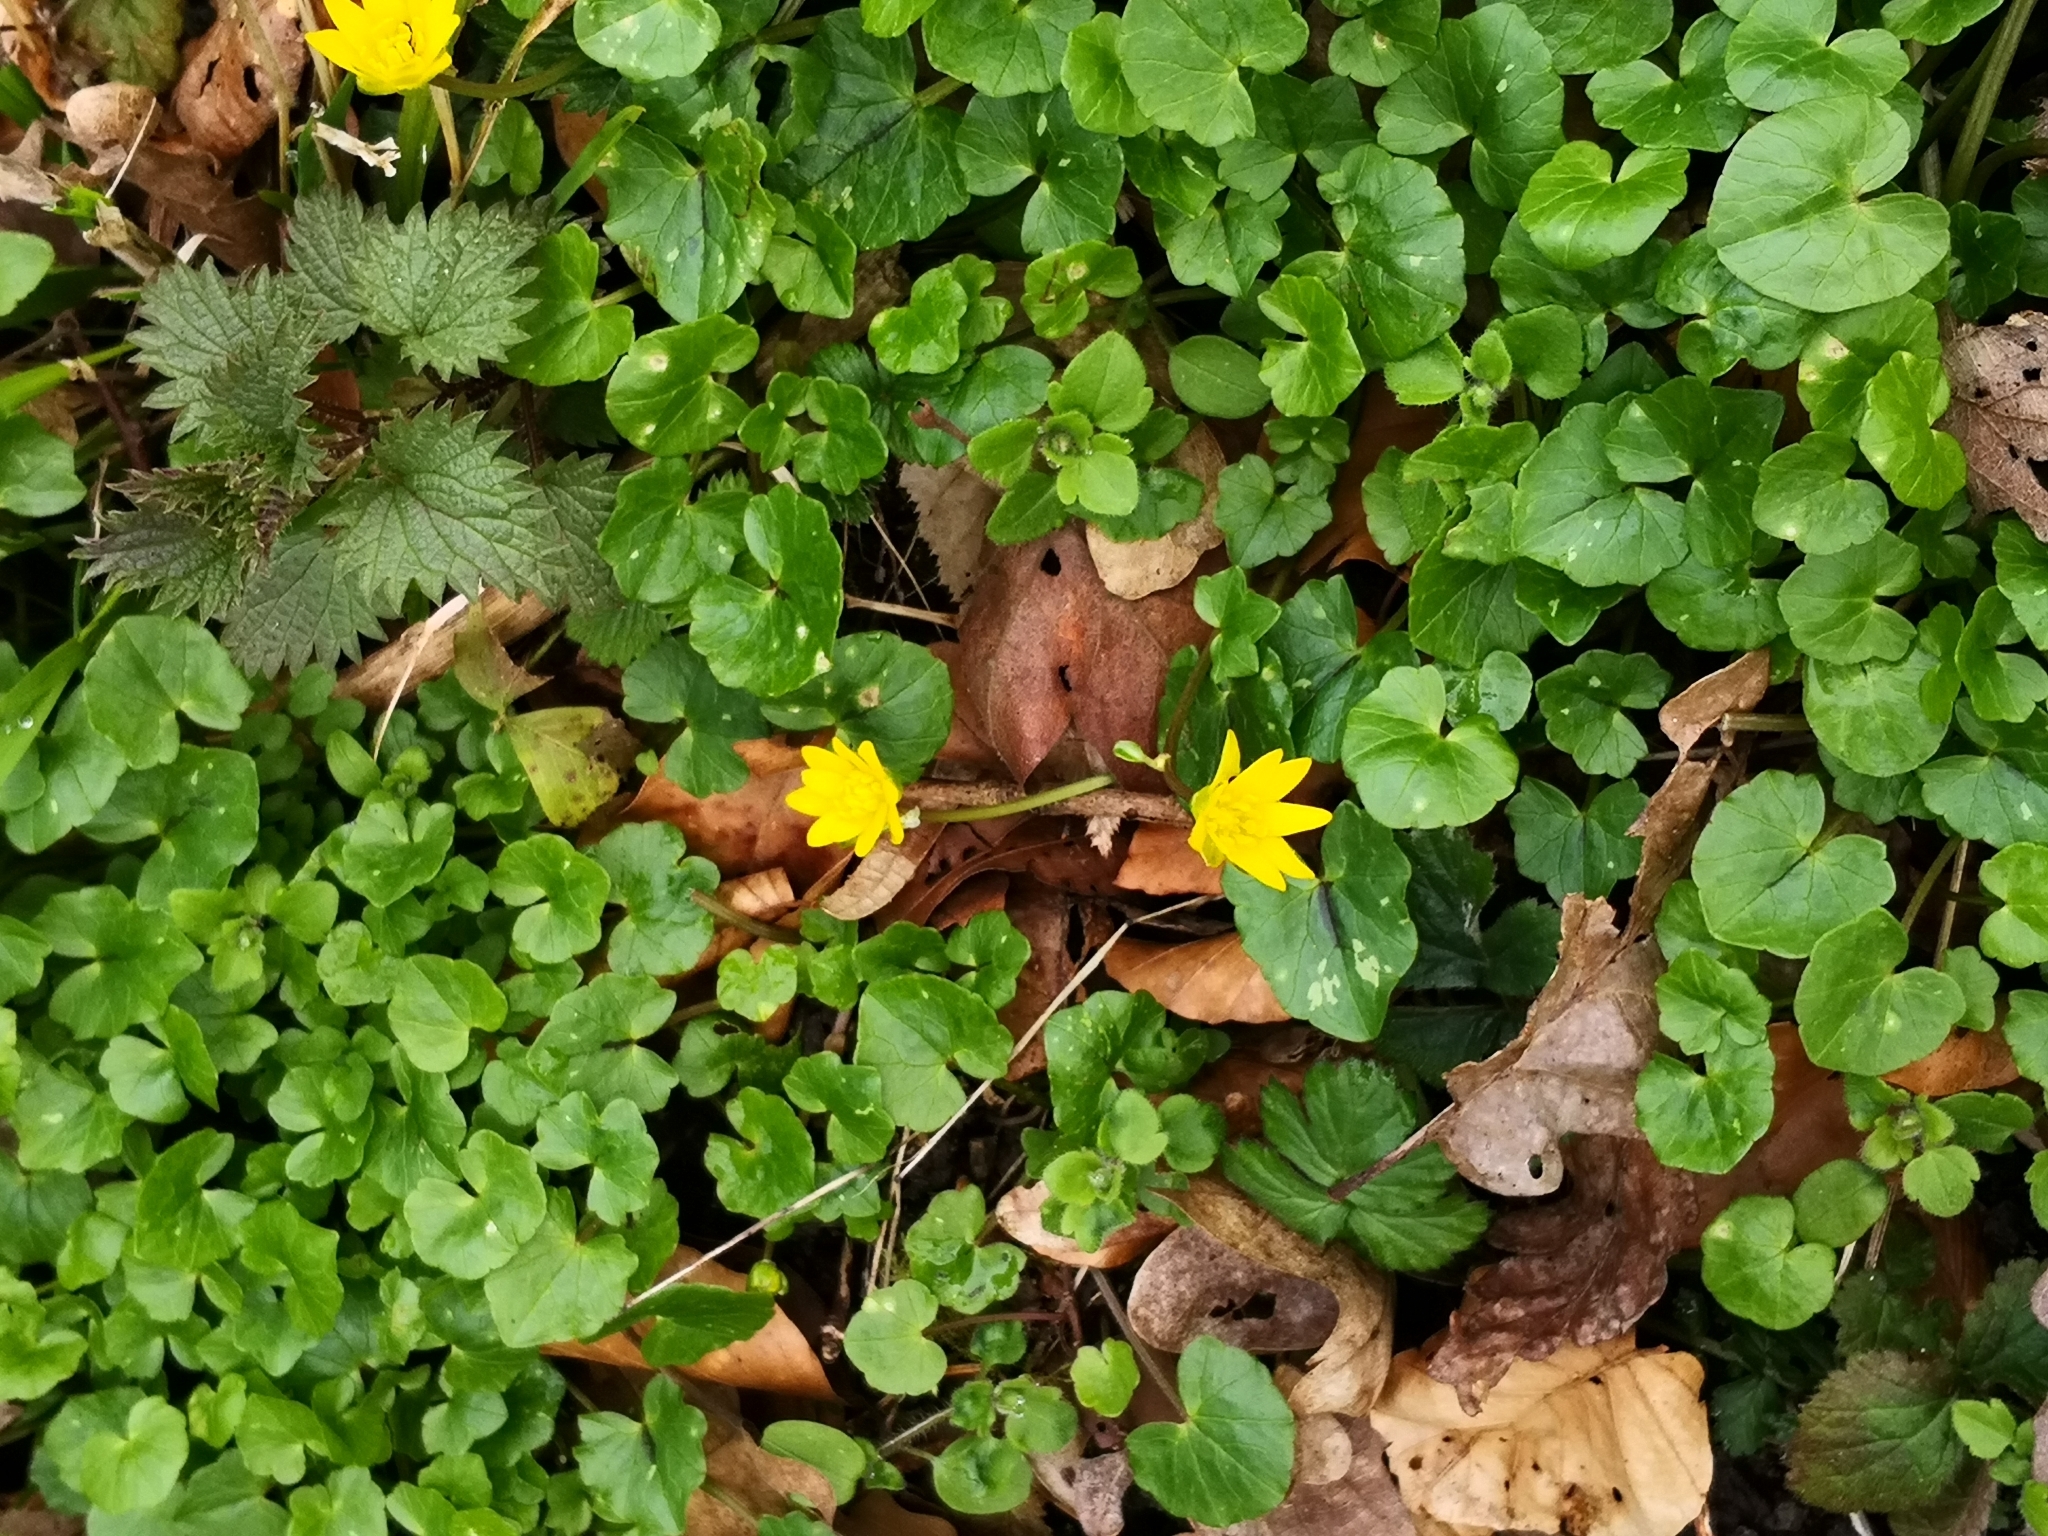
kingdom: Plantae
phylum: Tracheophyta
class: Magnoliopsida
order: Ranunculales
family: Ranunculaceae
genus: Ficaria
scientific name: Ficaria verna
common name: Lesser celandine
